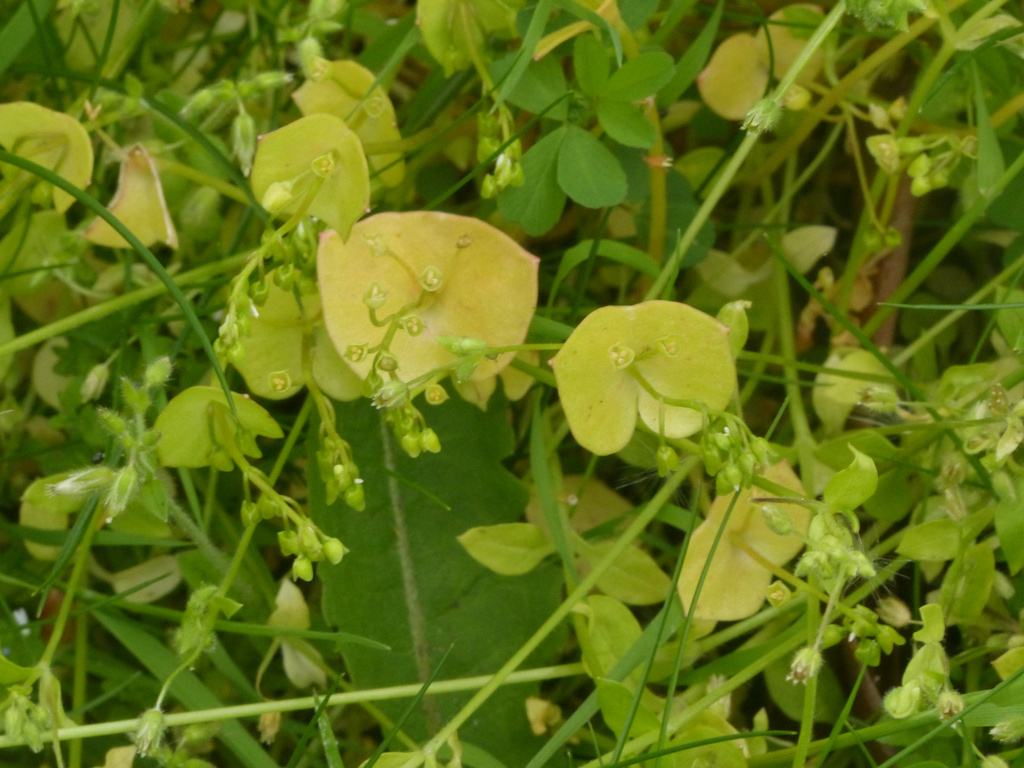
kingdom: Plantae
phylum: Tracheophyta
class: Magnoliopsida
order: Caryophyllales
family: Montiaceae
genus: Claytonia
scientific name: Claytonia perfoliata
